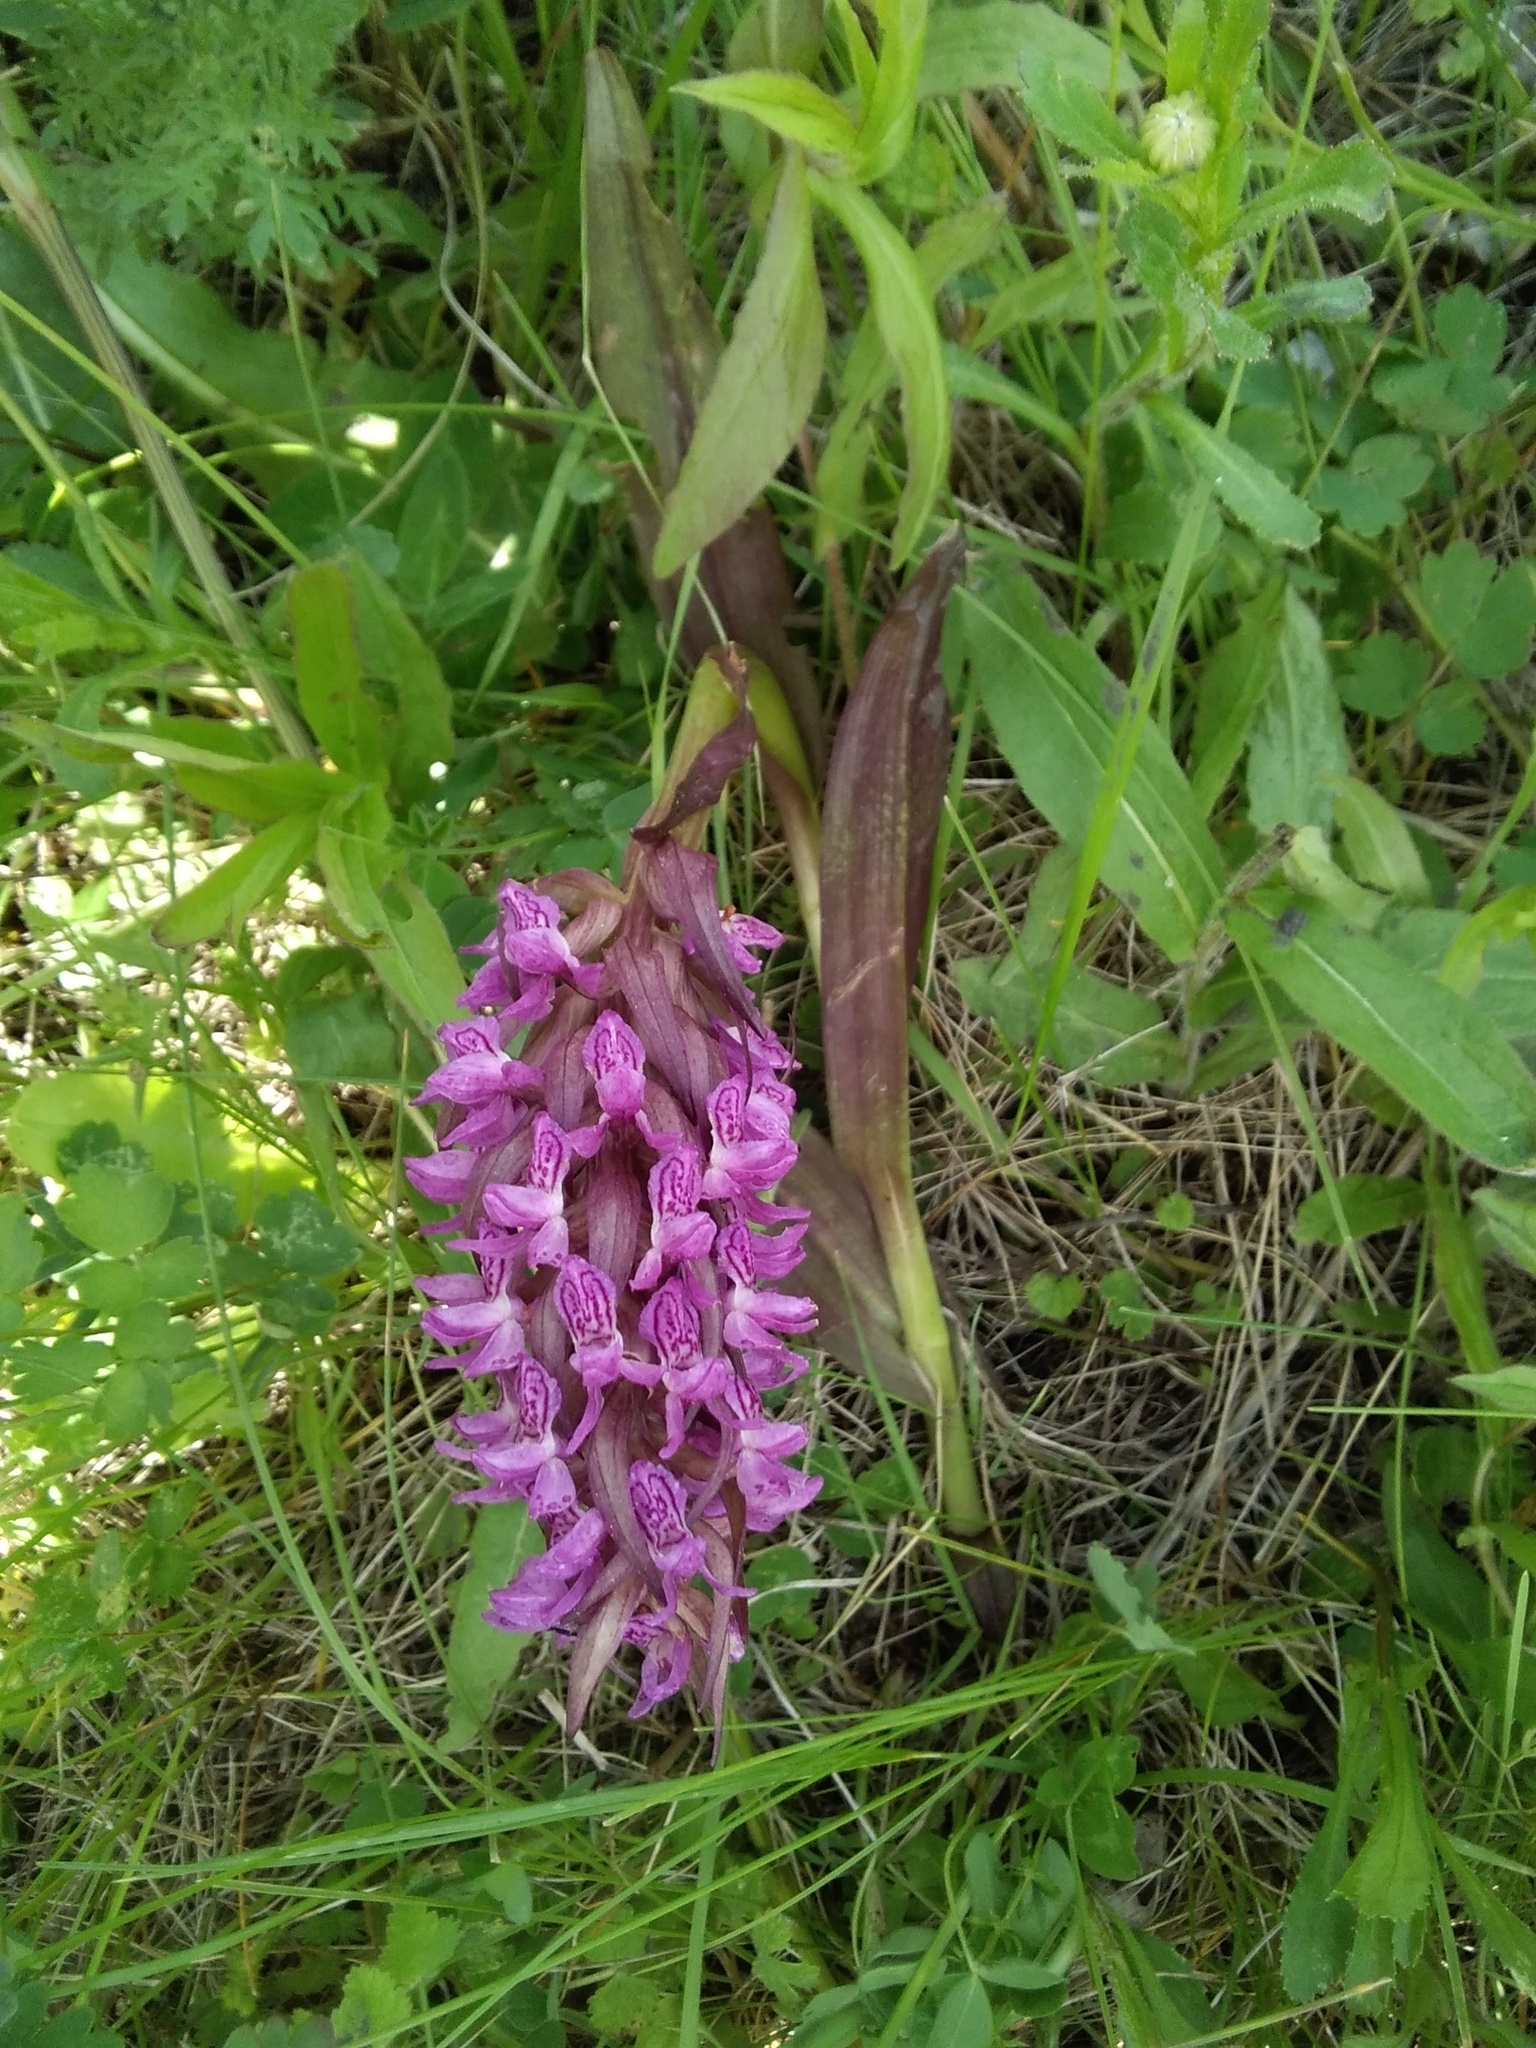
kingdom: Plantae
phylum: Tracheophyta
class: Liliopsida
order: Asparagales
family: Orchidaceae
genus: Dactylorhiza
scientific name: Dactylorhiza incarnata
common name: Early marsh-orchid
